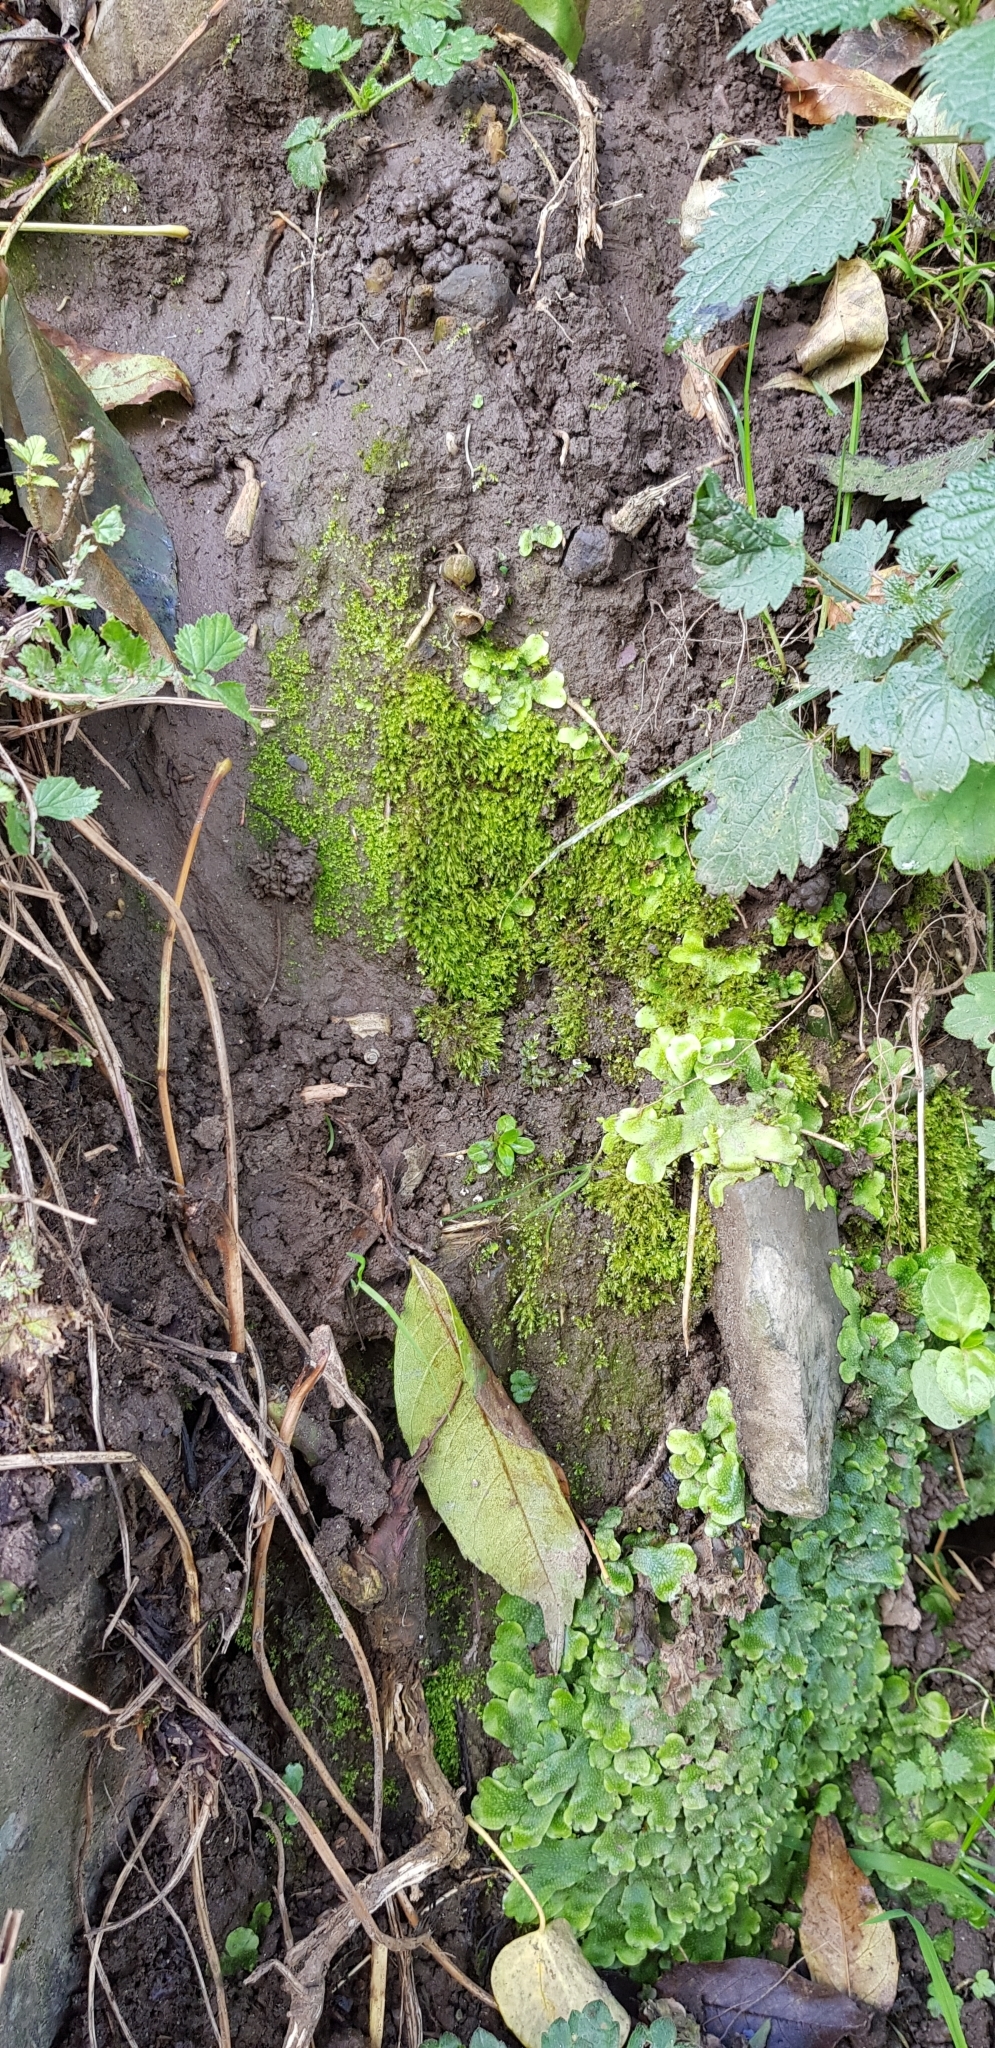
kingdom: Plantae
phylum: Bryophyta
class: Bryopsida
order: Bryales
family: Mniaceae
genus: Pohlia
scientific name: Pohlia melanodon
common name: Black-toothed nodding moss
